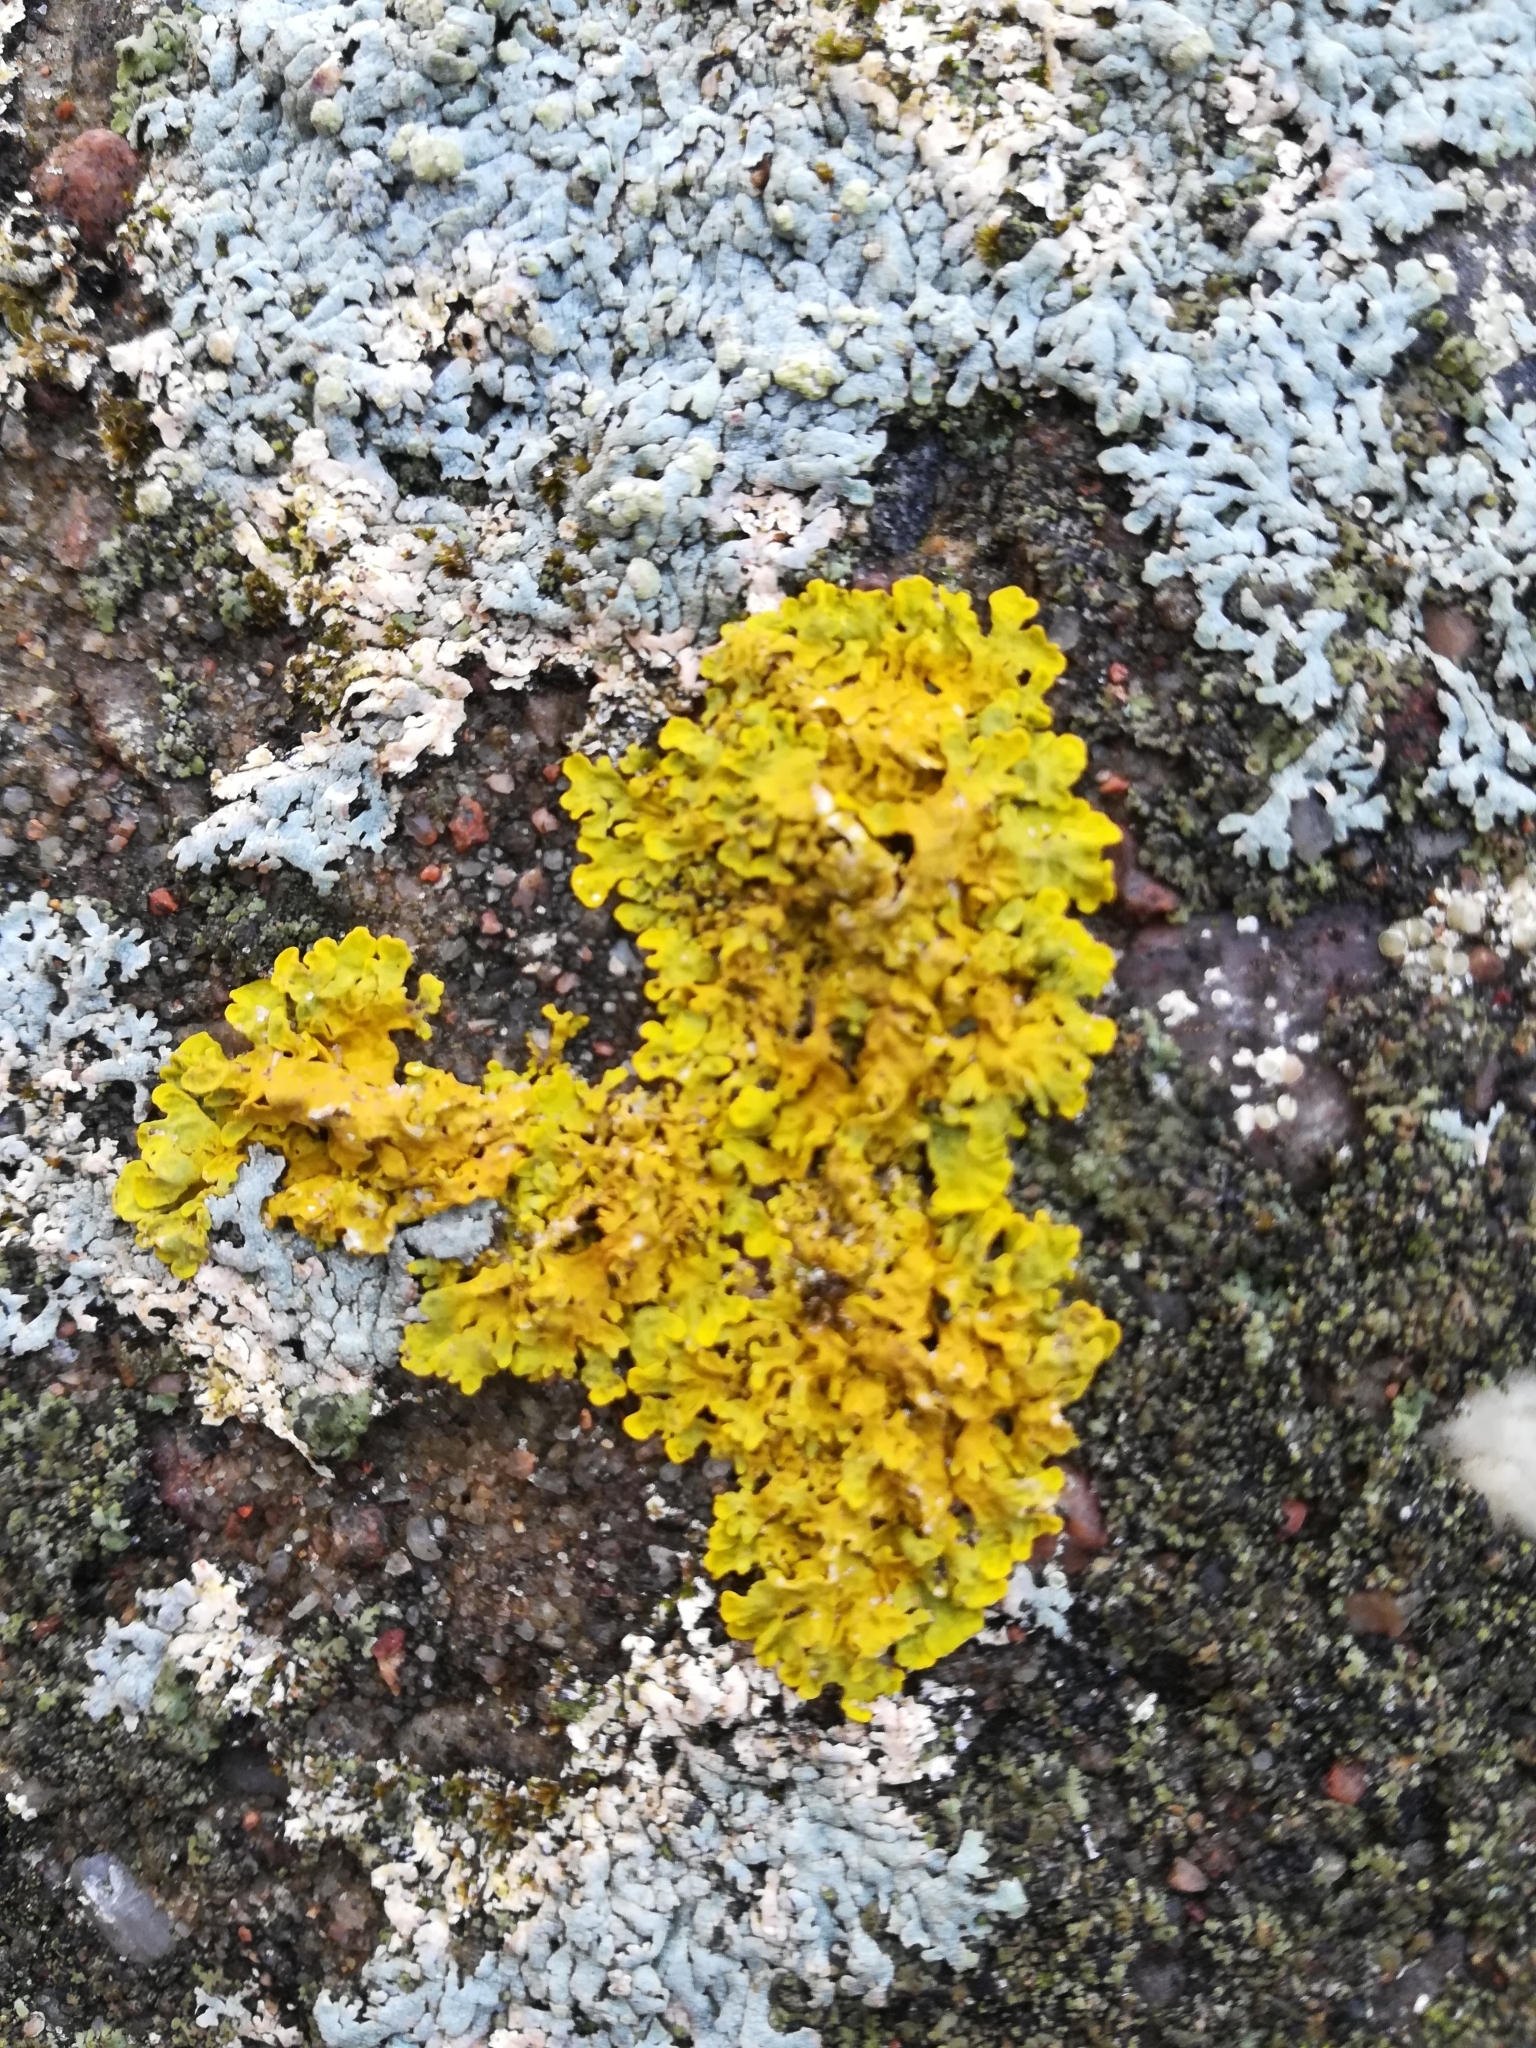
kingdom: Fungi
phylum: Ascomycota
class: Lecanoromycetes
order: Teloschistales
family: Teloschistaceae
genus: Xanthoria
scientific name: Xanthoria parietina
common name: Common orange lichen
